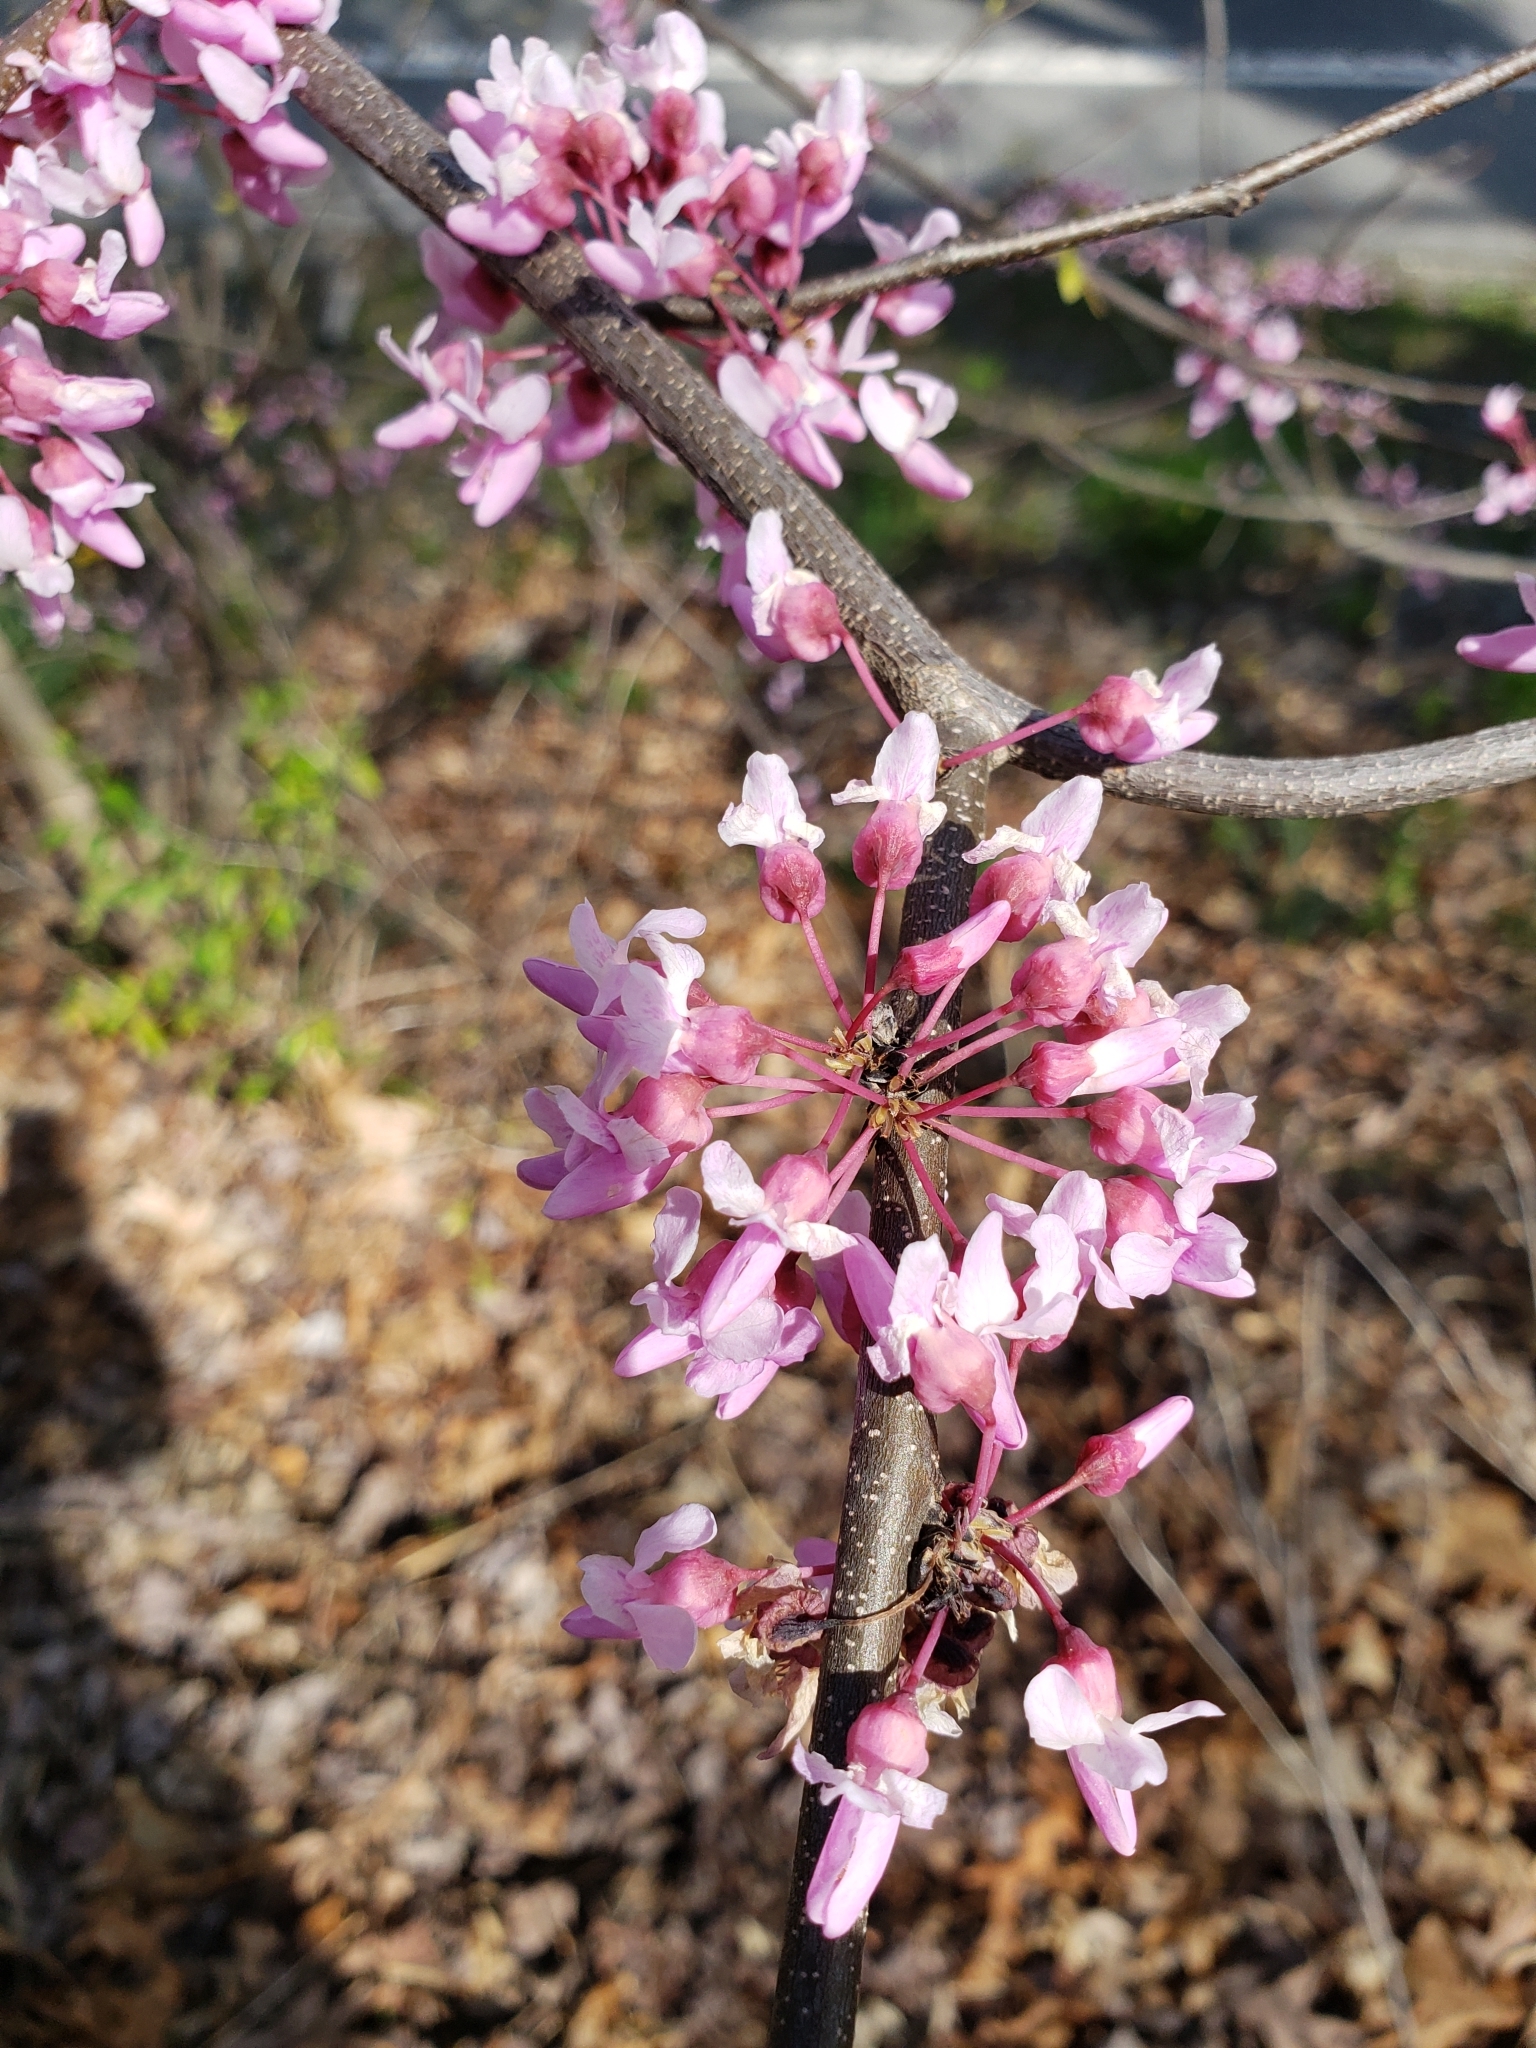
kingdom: Plantae
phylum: Tracheophyta
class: Magnoliopsida
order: Fabales
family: Fabaceae
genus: Cercis
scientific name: Cercis canadensis
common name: Eastern redbud
